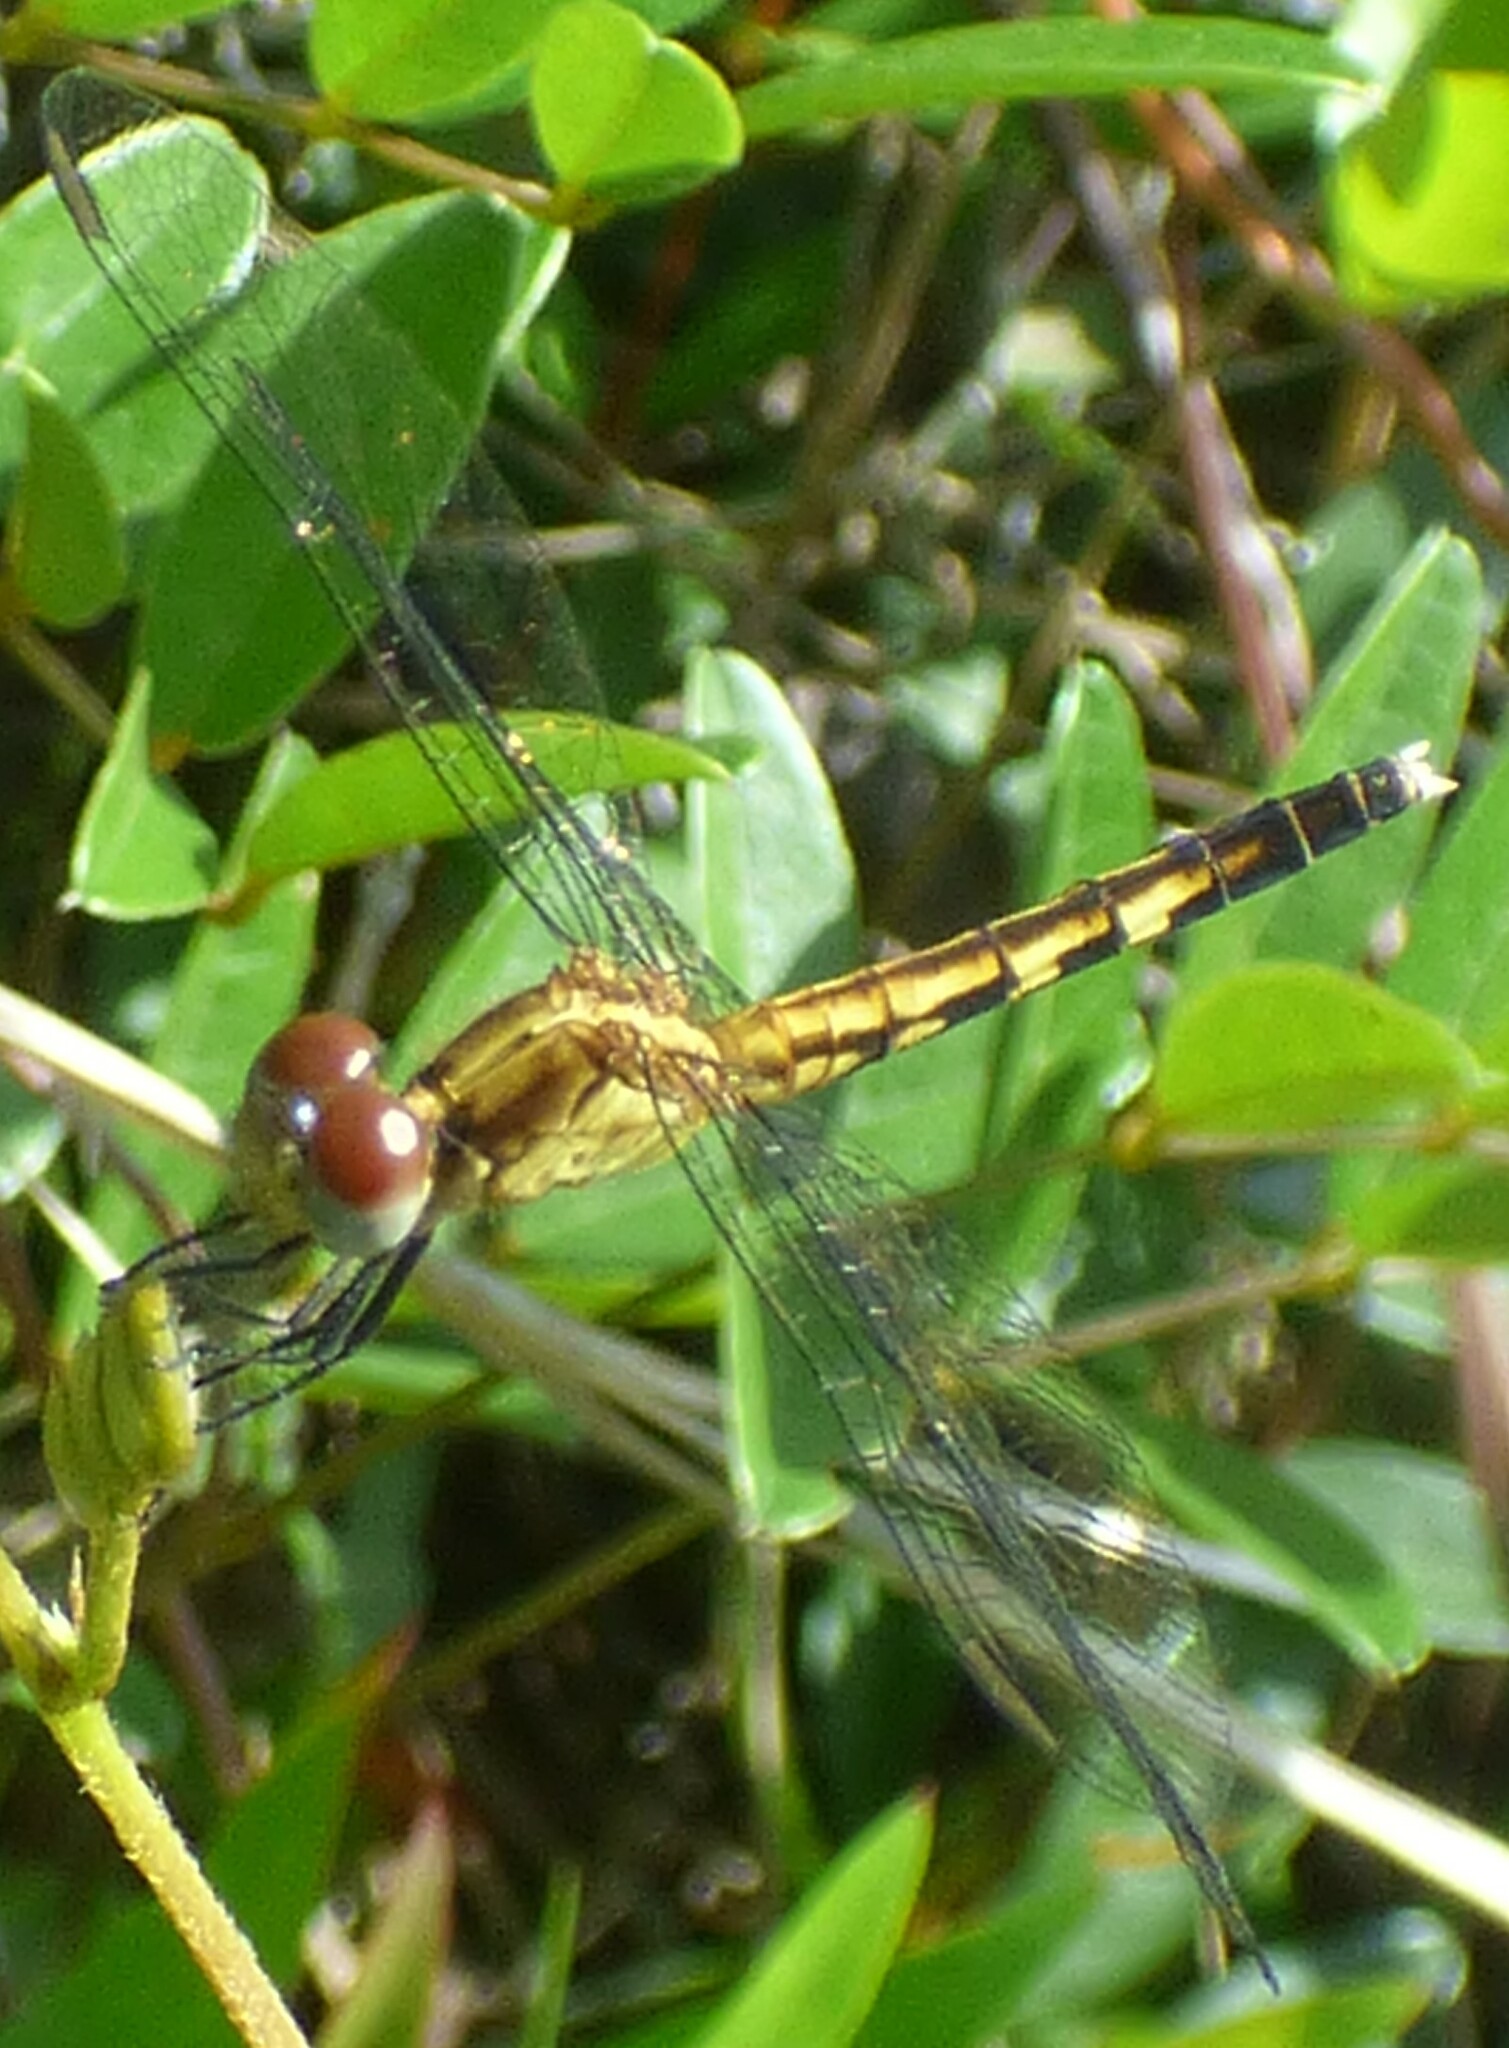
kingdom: Animalia
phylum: Arthropoda
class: Insecta
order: Odonata
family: Libellulidae
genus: Erythrodiplax
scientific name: Erythrodiplax minuscula
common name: Little blue dragonlet
